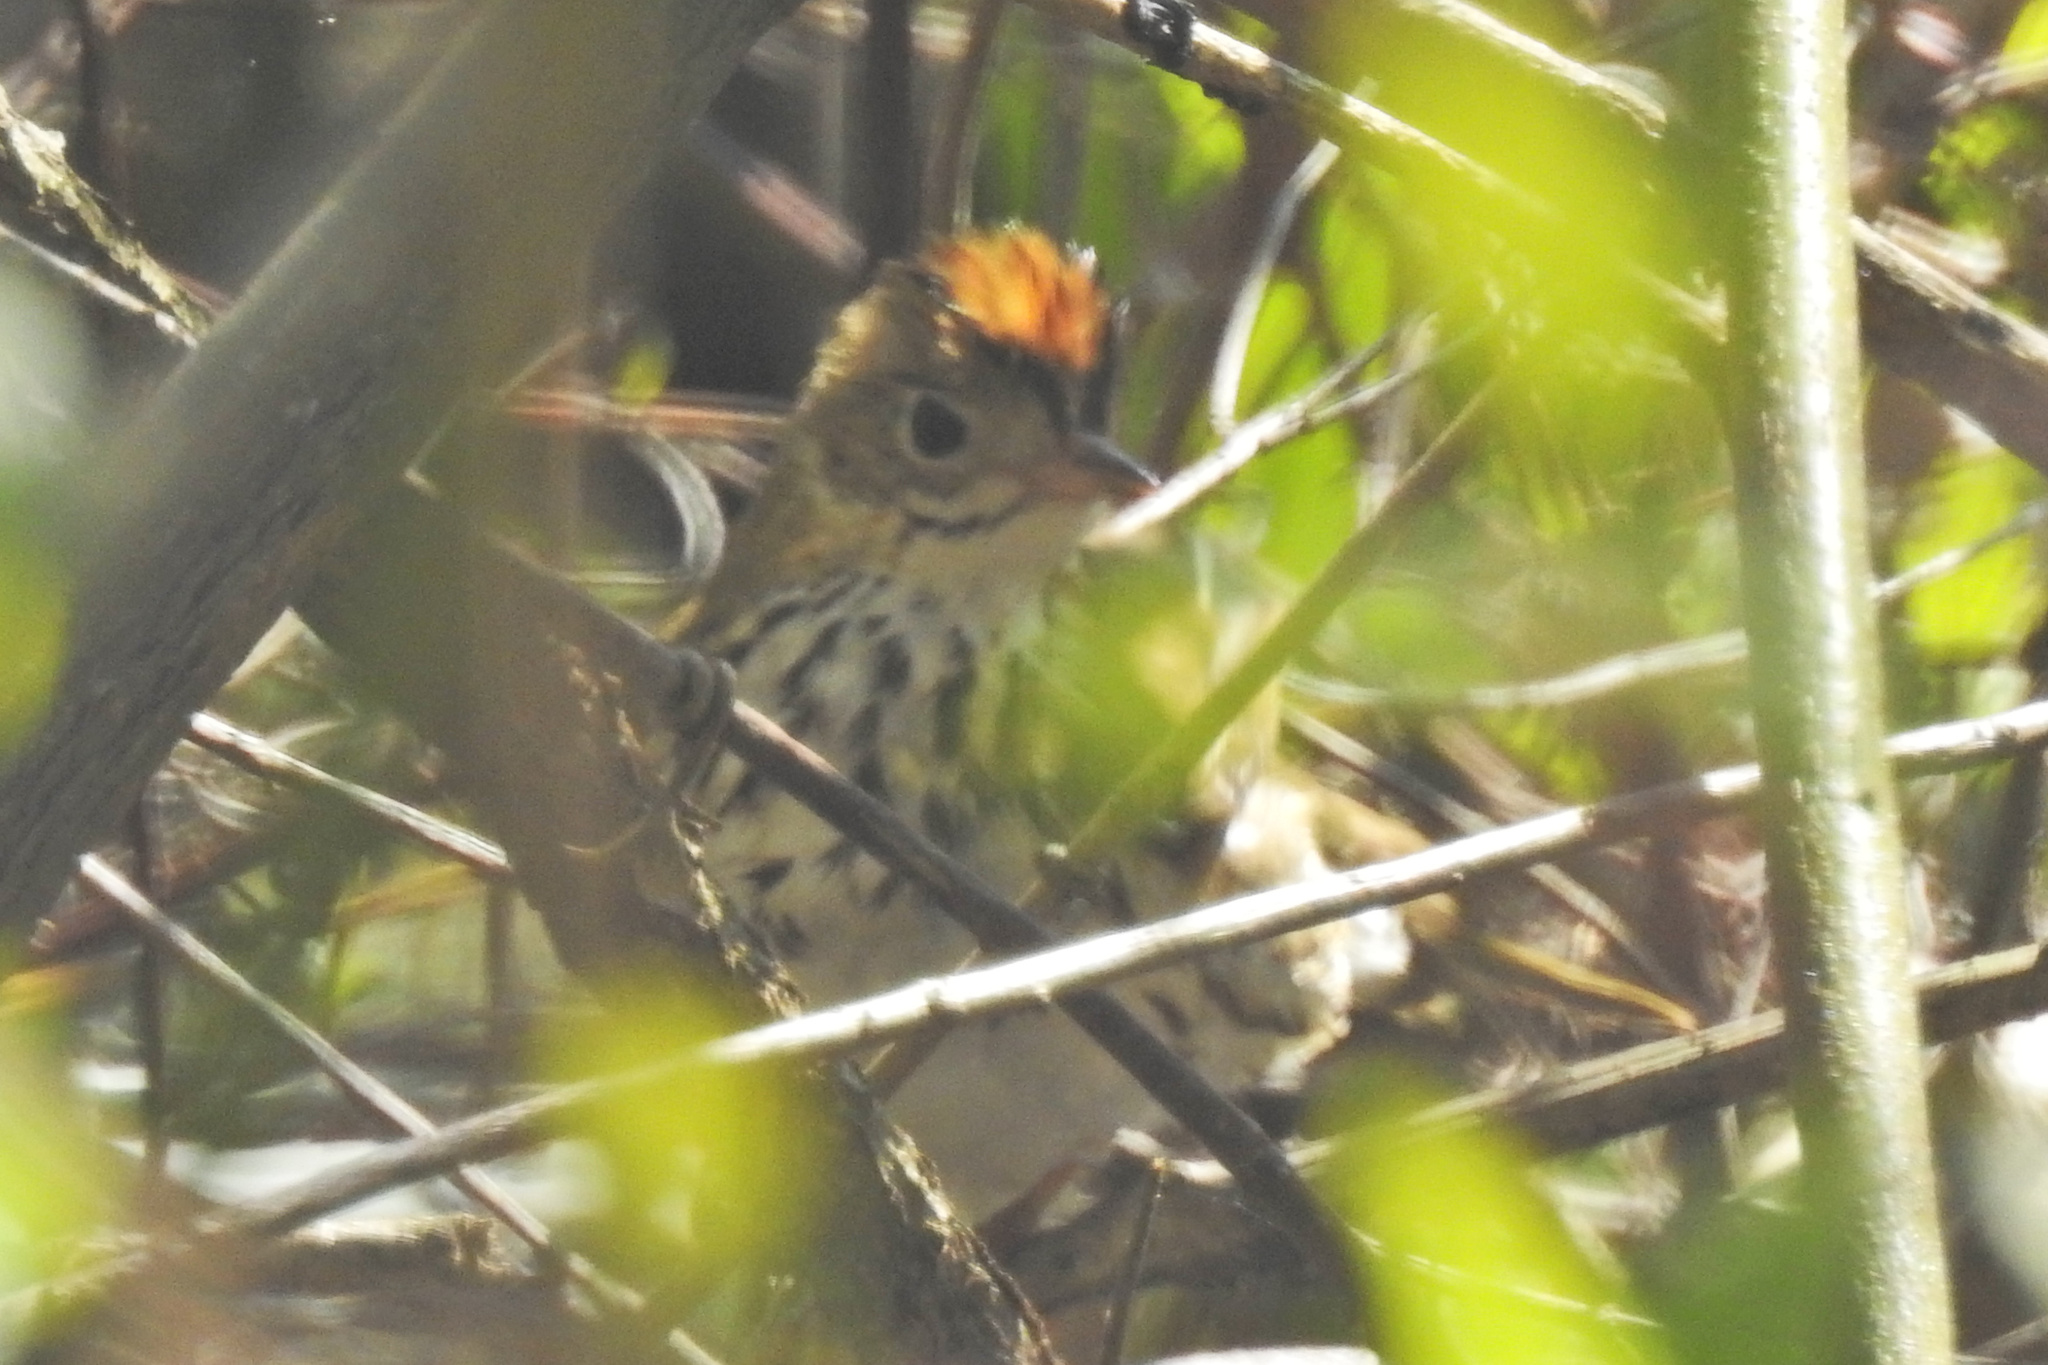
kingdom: Animalia
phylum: Chordata
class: Aves
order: Passeriformes
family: Parulidae
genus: Seiurus
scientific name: Seiurus aurocapilla
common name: Ovenbird
